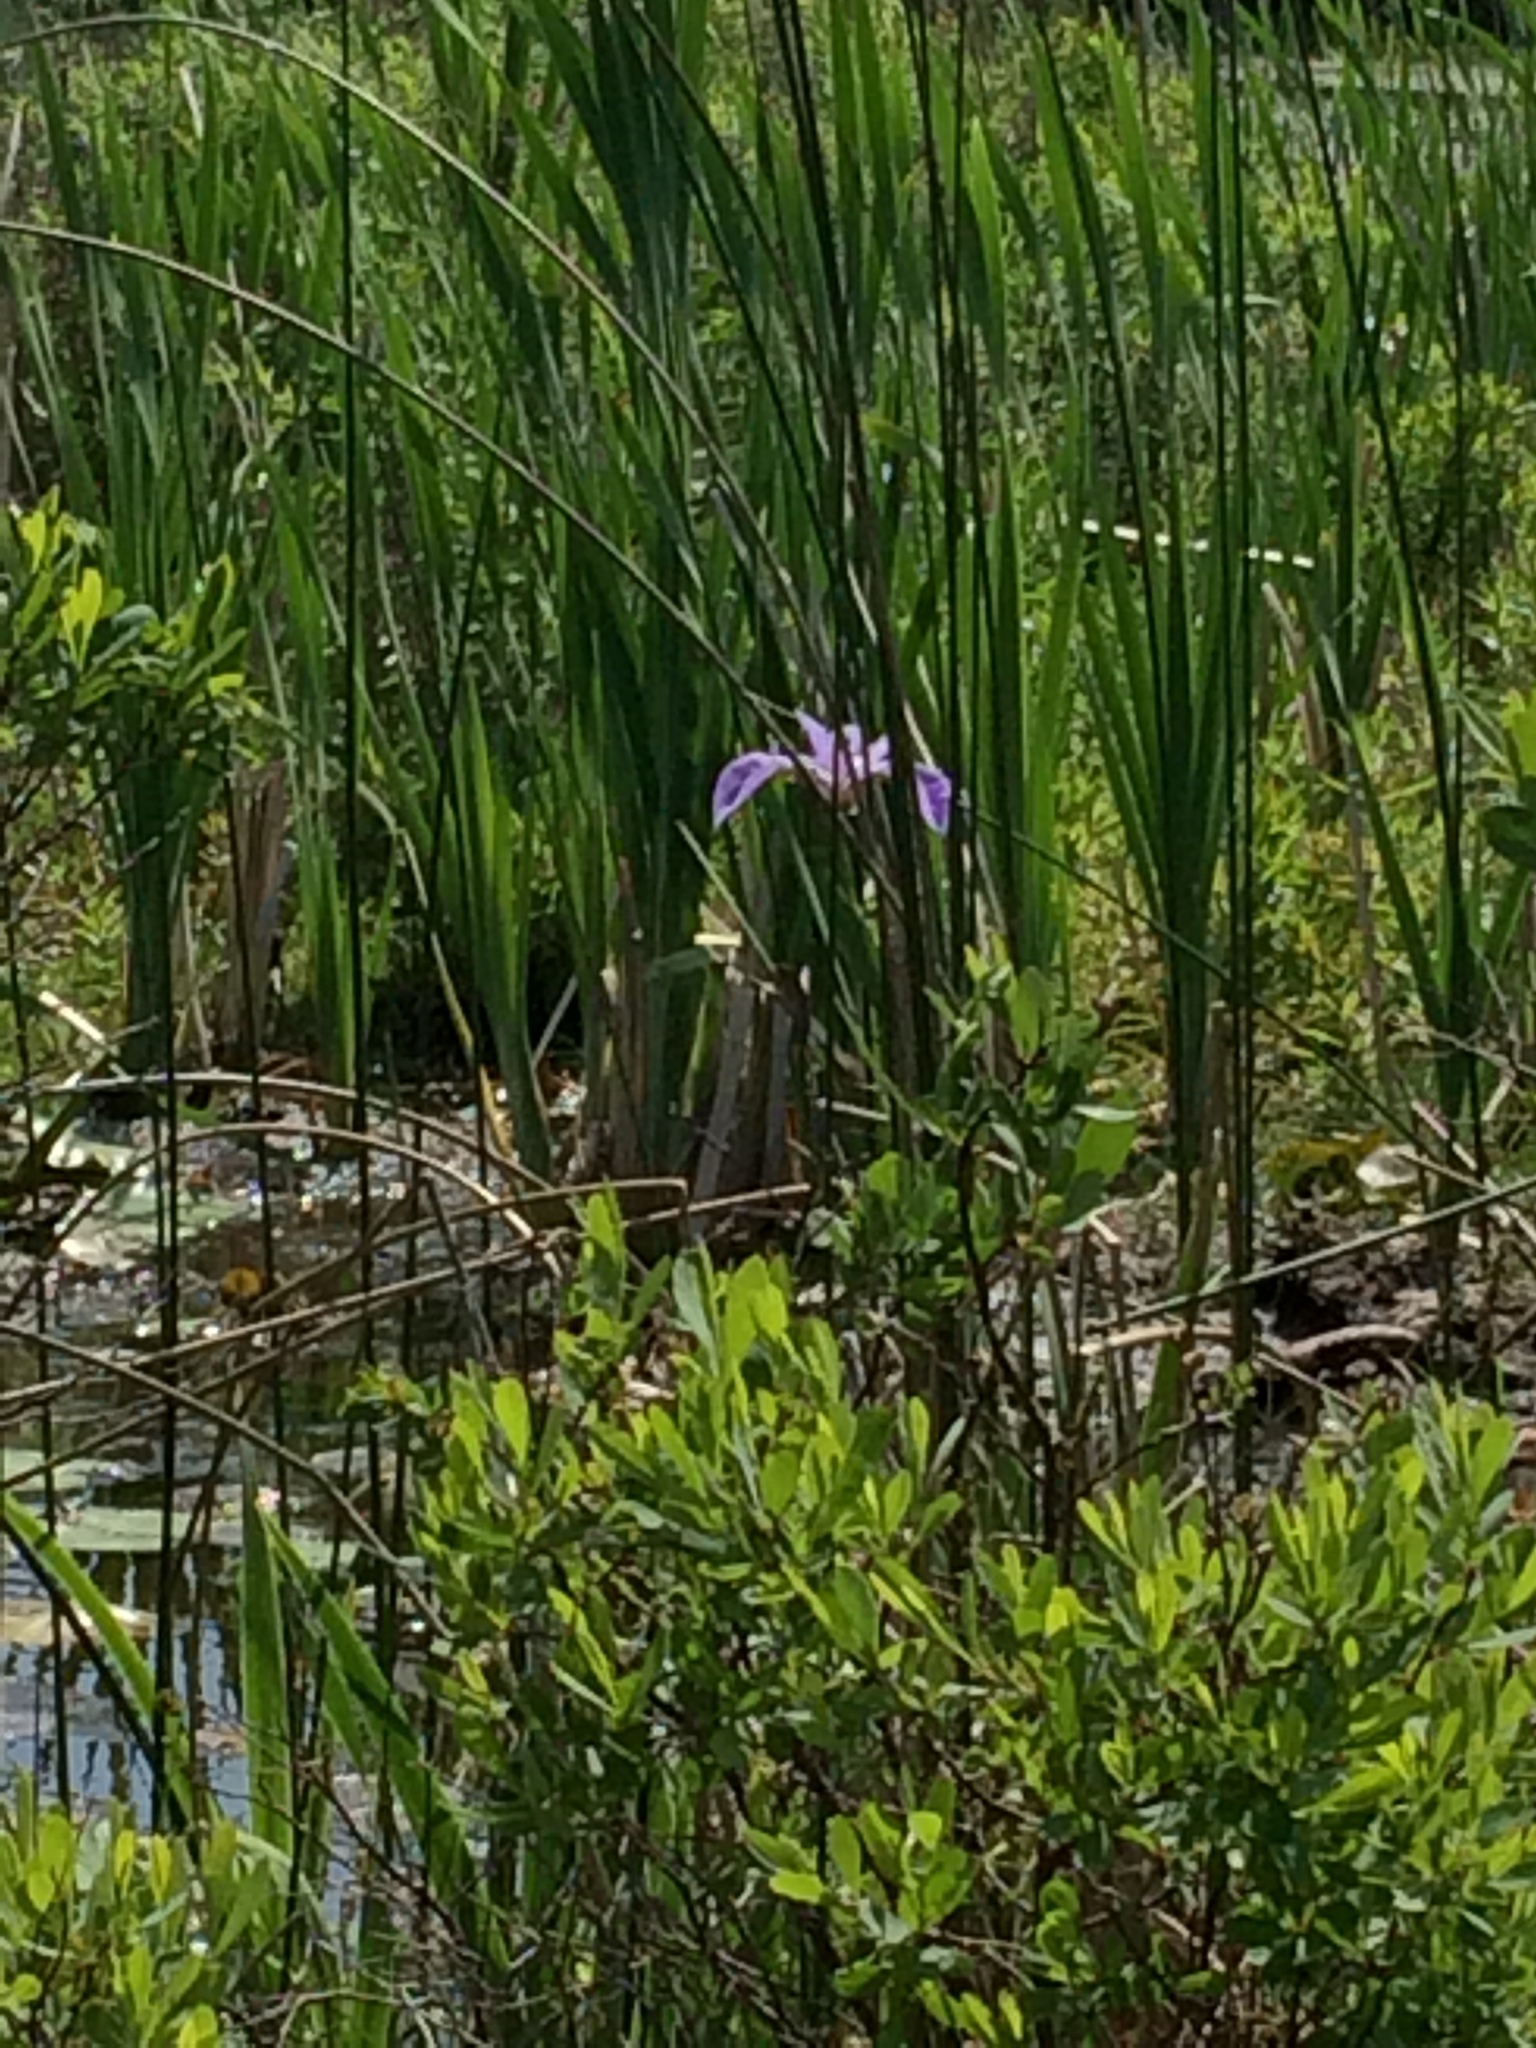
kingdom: Plantae
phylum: Tracheophyta
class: Liliopsida
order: Asparagales
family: Iridaceae
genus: Iris
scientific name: Iris versicolor
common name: Purple iris
